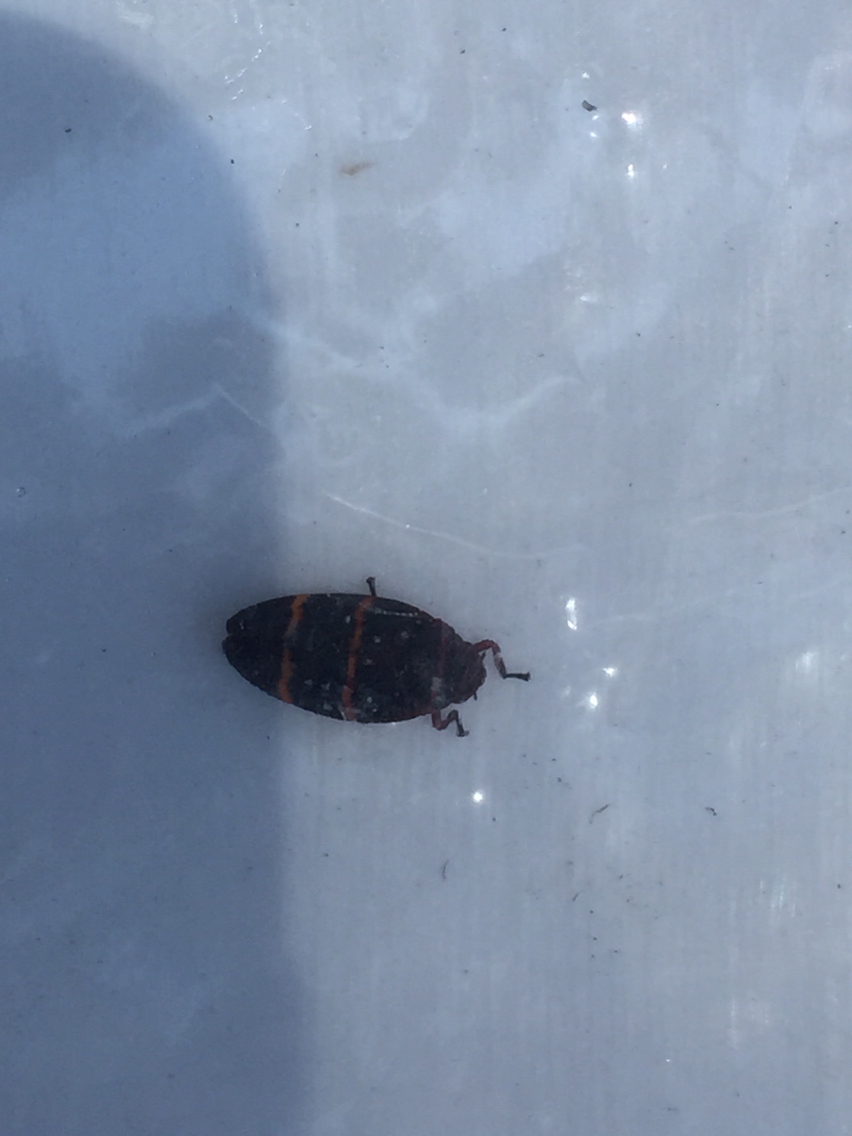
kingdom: Animalia
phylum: Arthropoda
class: Insecta
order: Hemiptera
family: Cercopidae
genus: Prosapia
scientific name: Prosapia bicincta
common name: Twolined spittlebug
